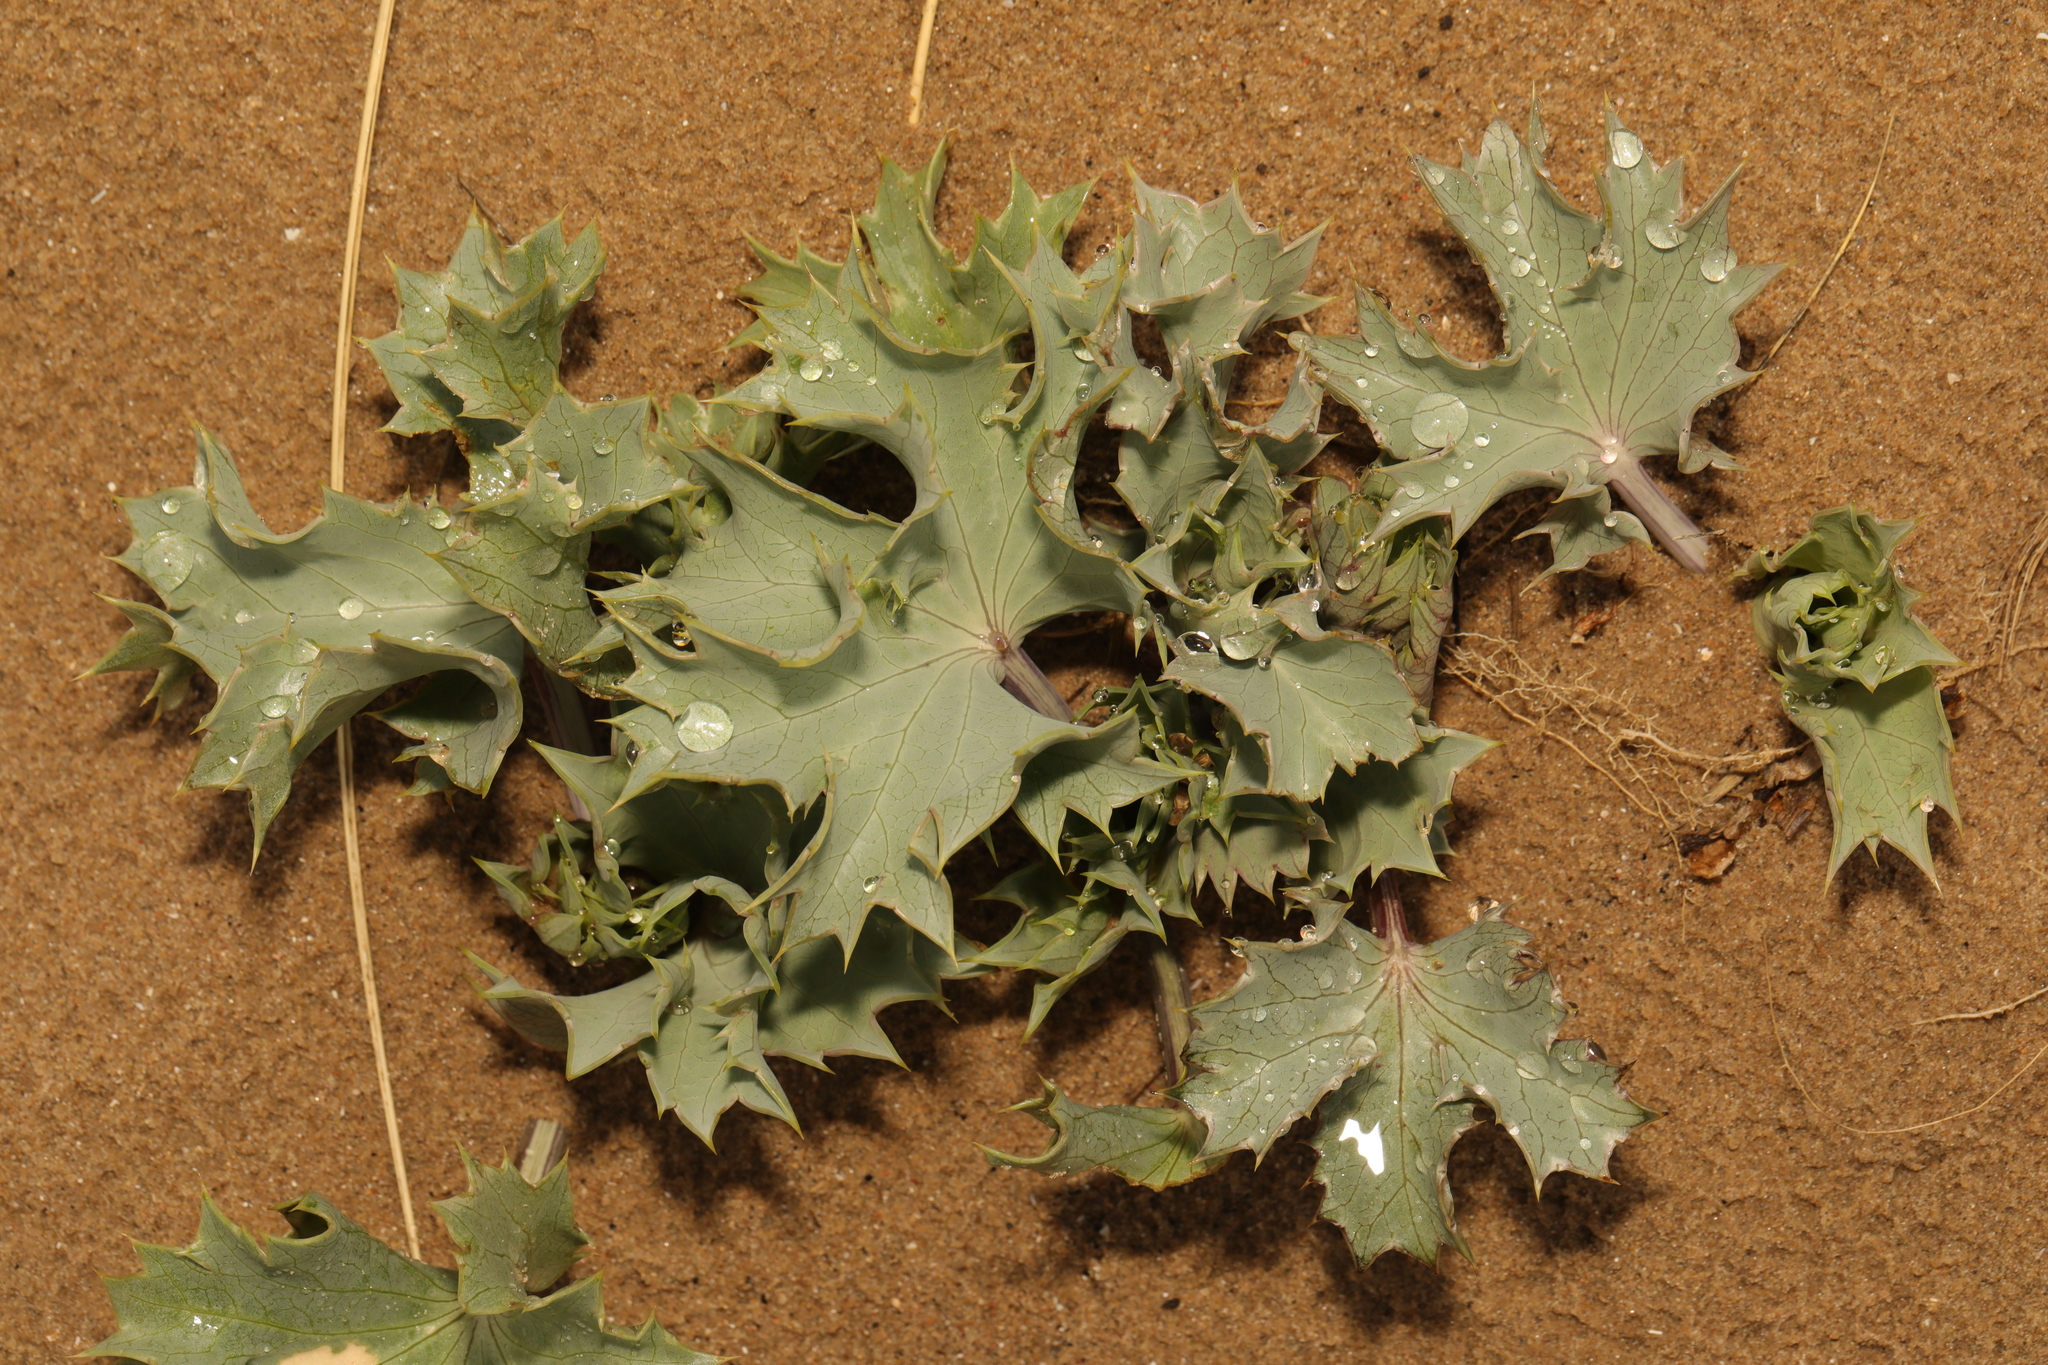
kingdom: Plantae
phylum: Tracheophyta
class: Magnoliopsida
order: Apiales
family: Apiaceae
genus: Eryngium
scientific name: Eryngium maritimum
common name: Sea-holly
